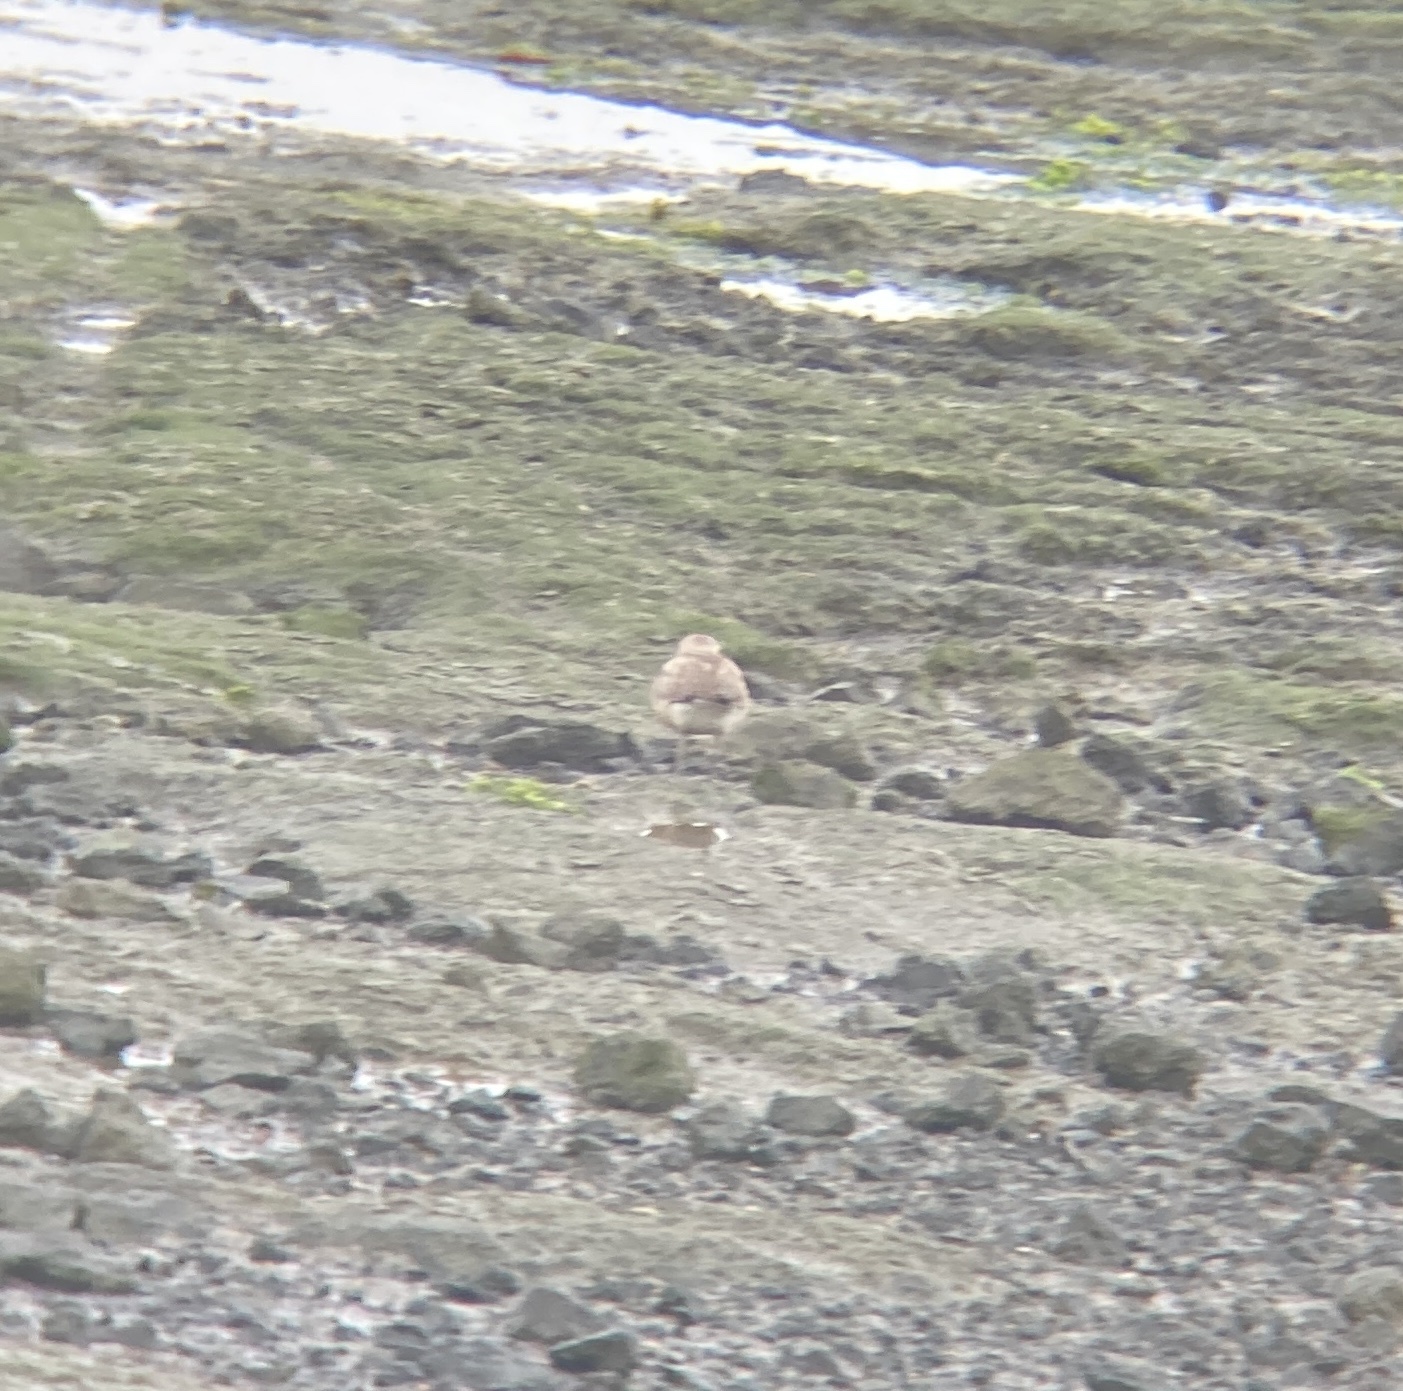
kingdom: Animalia
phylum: Chordata
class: Aves
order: Charadriiformes
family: Charadriidae
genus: Anarhynchus
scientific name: Anarhynchus
